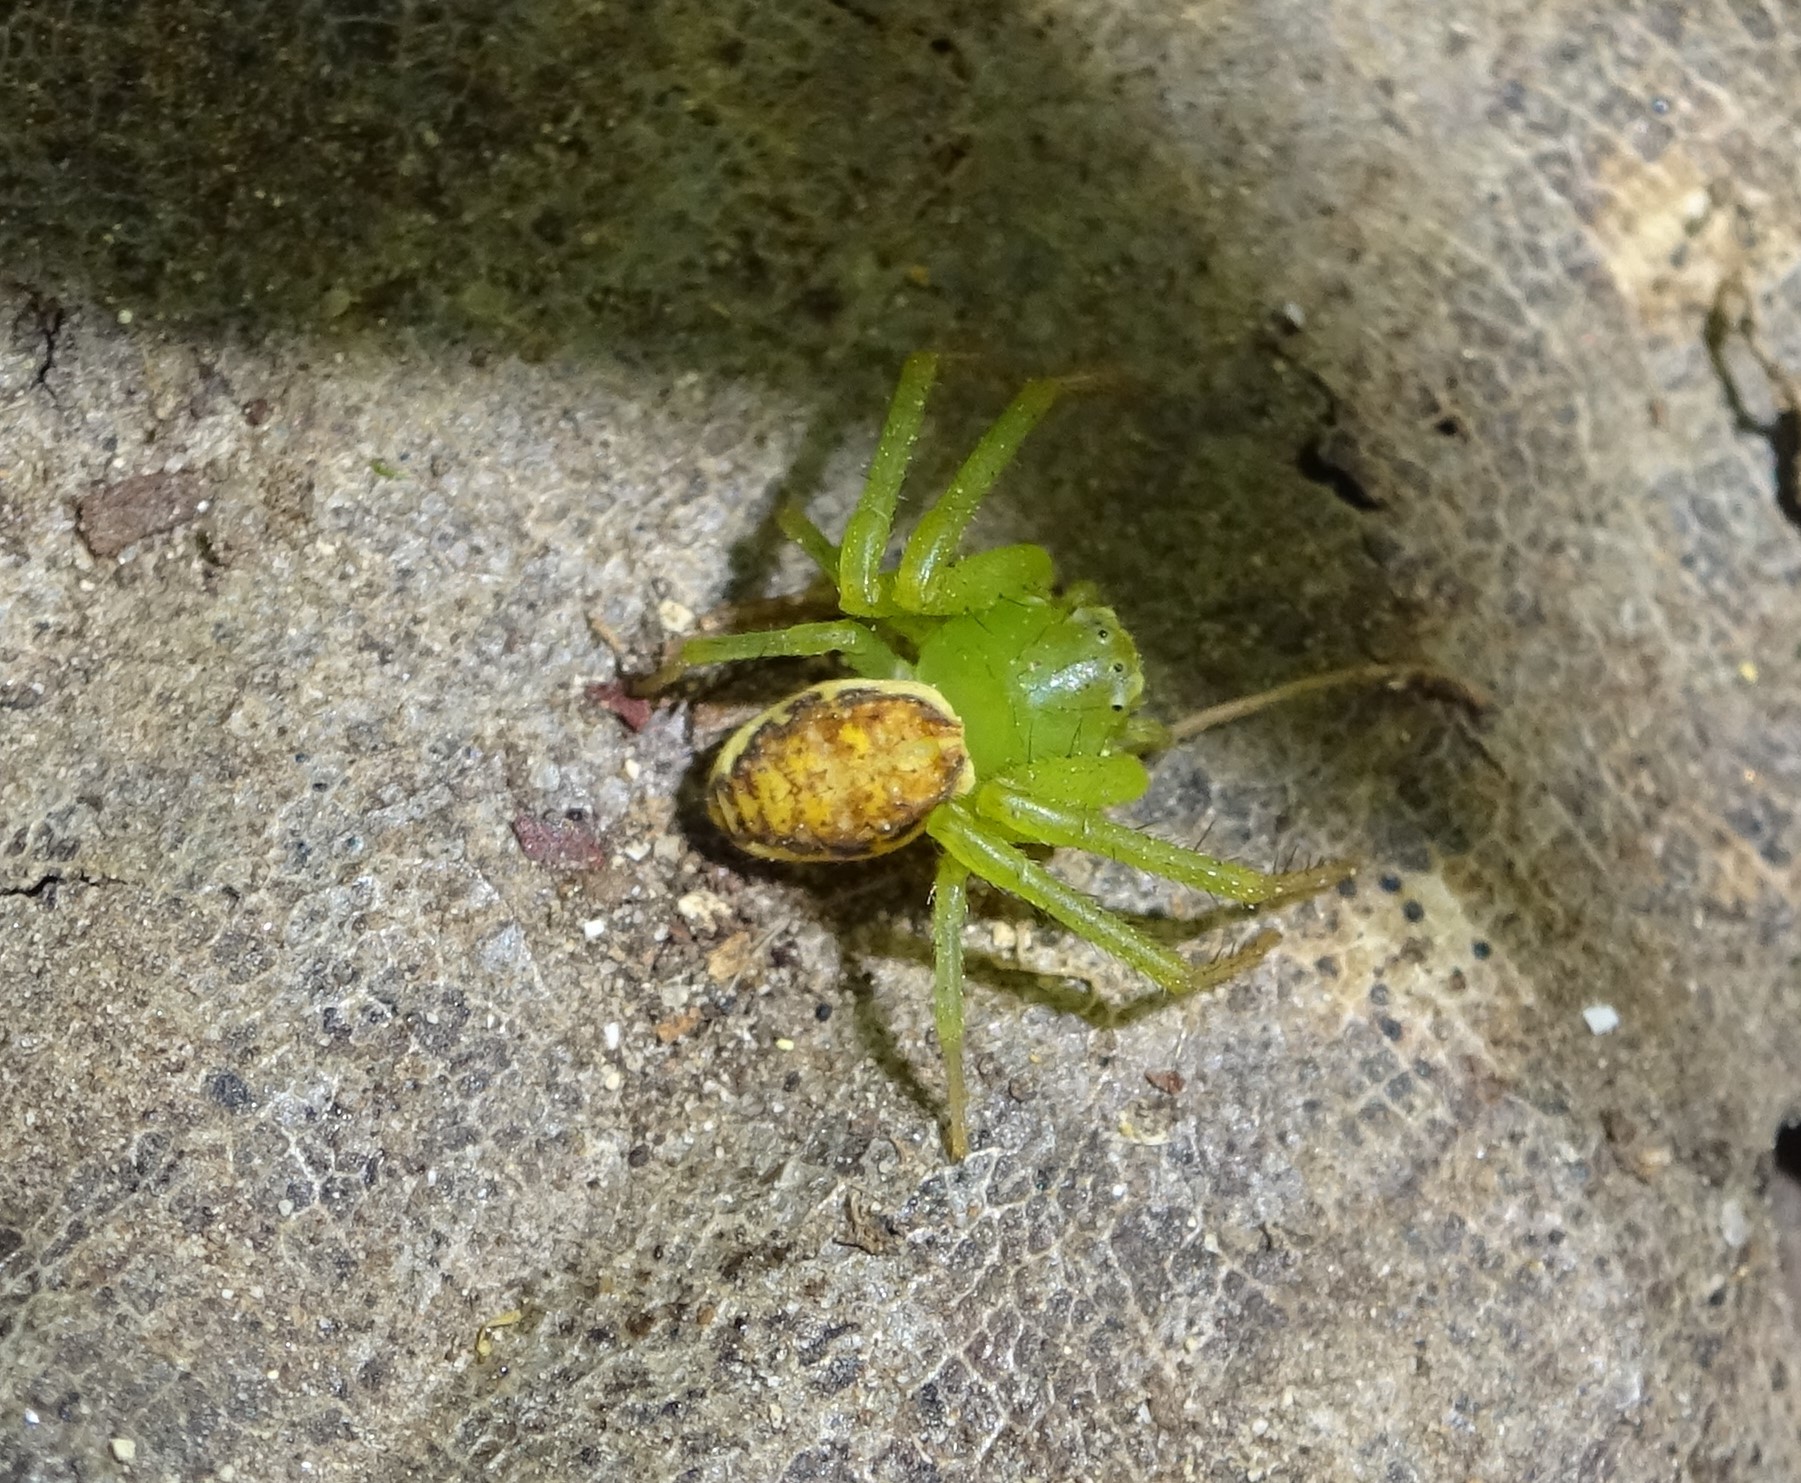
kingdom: Animalia
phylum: Arthropoda
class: Arachnida
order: Araneae
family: Thomisidae
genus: Diaea
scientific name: Diaea dorsata
